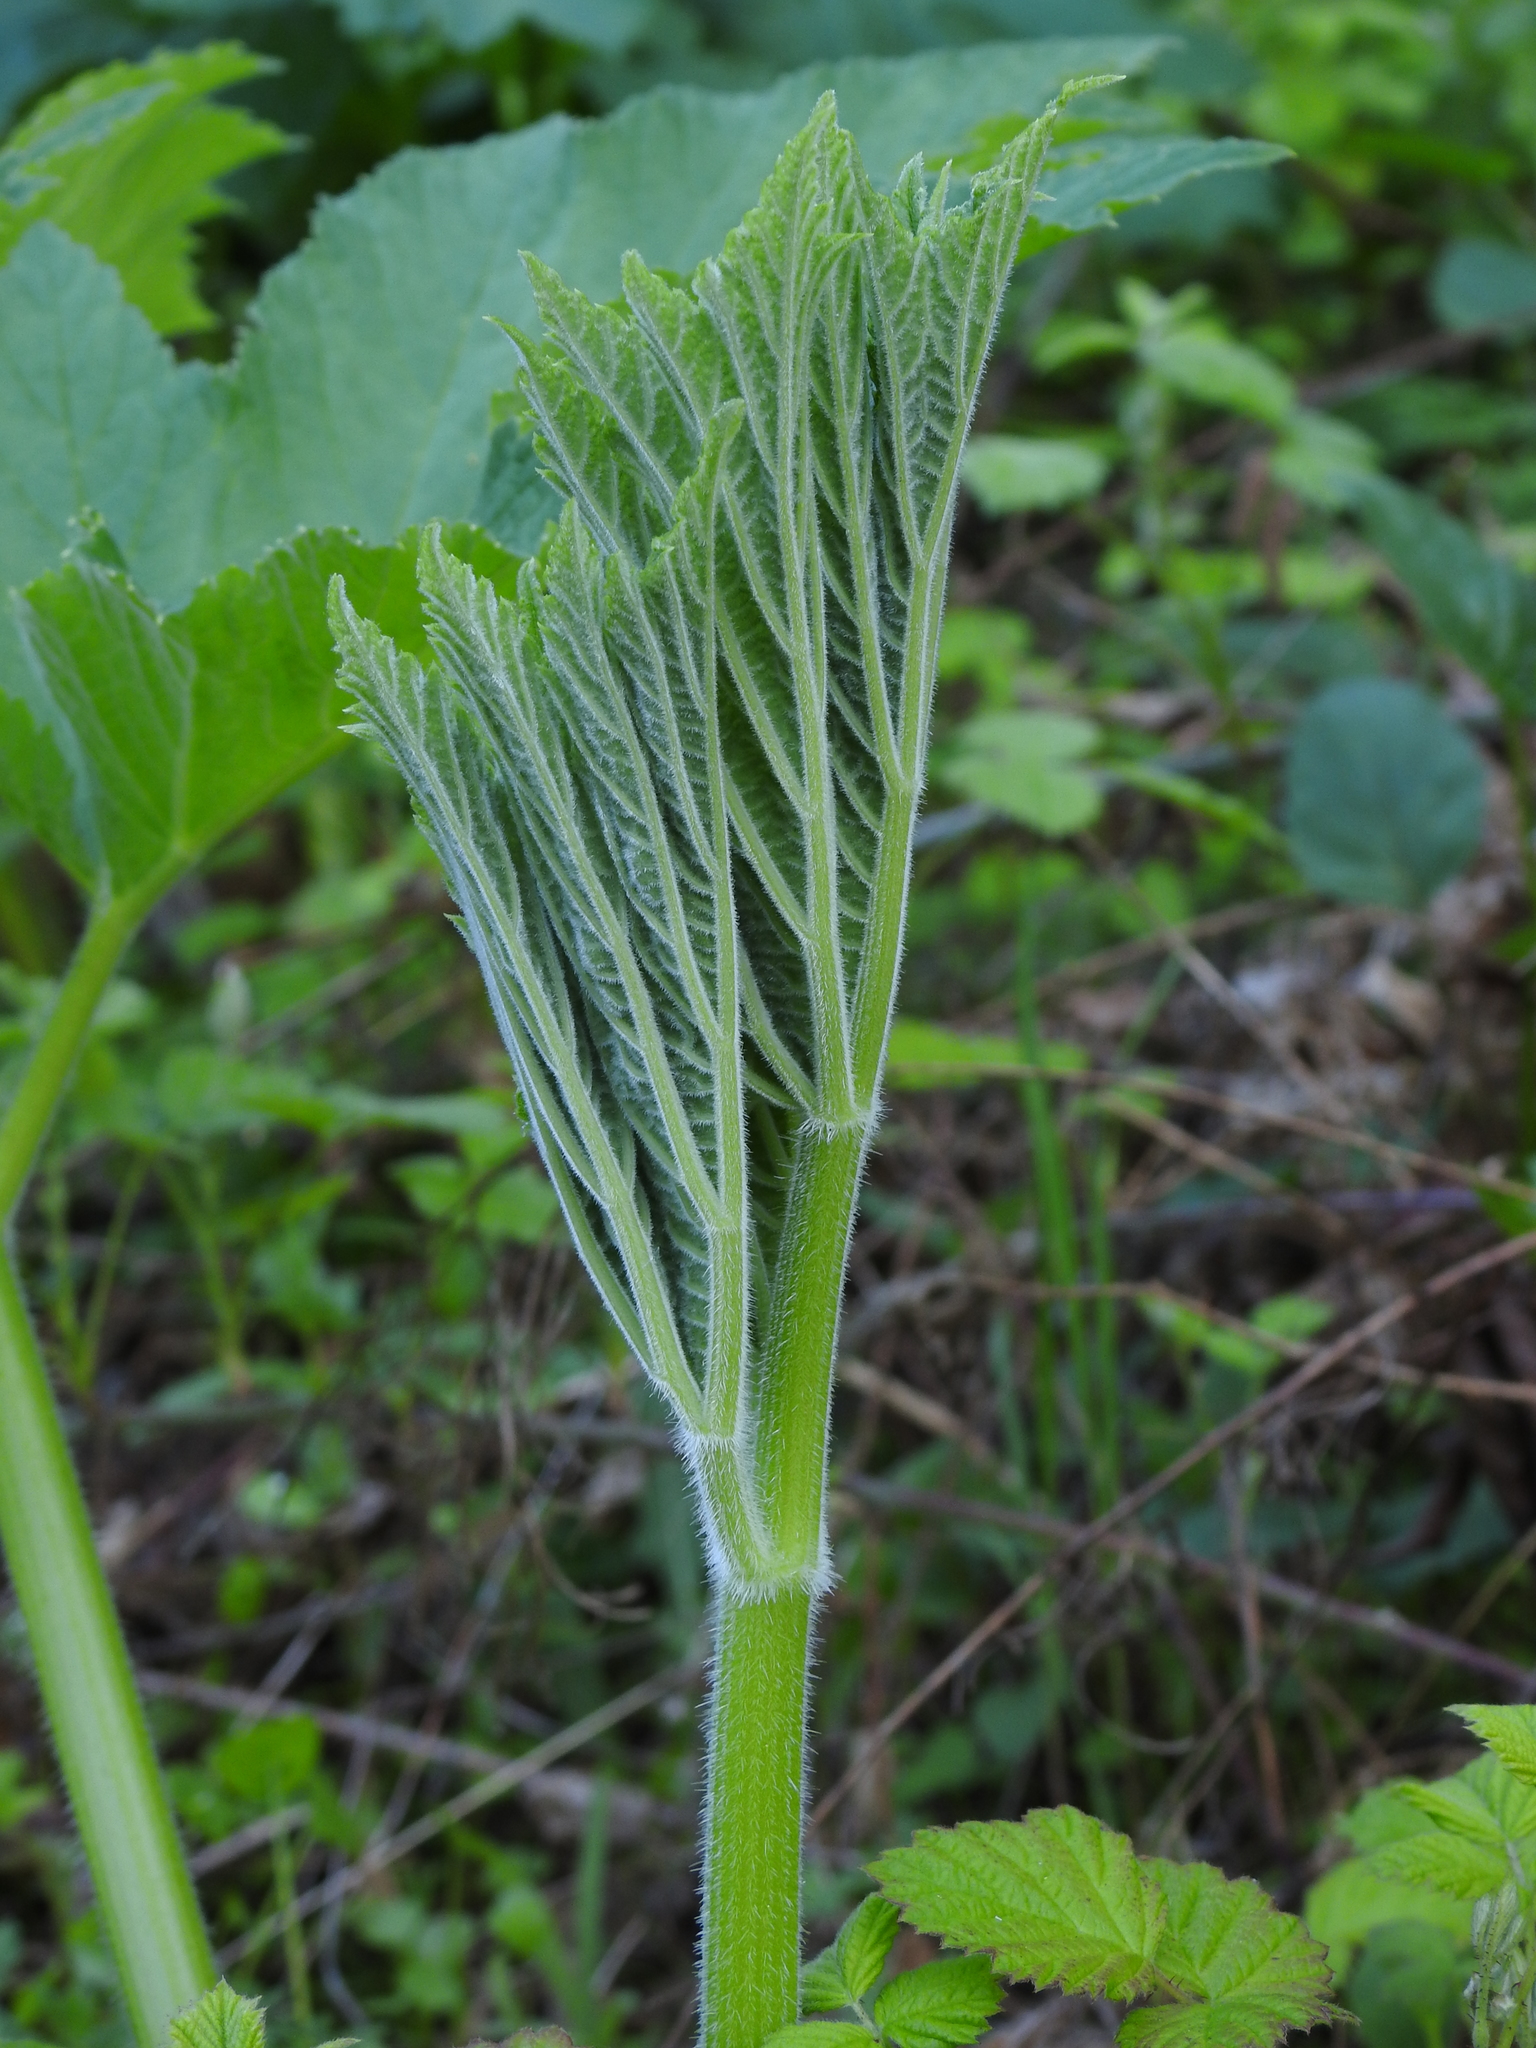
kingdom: Plantae
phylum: Tracheophyta
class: Magnoliopsida
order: Apiales
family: Apiaceae
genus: Heracleum
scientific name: Heracleum maximum
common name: American cow parsnip
